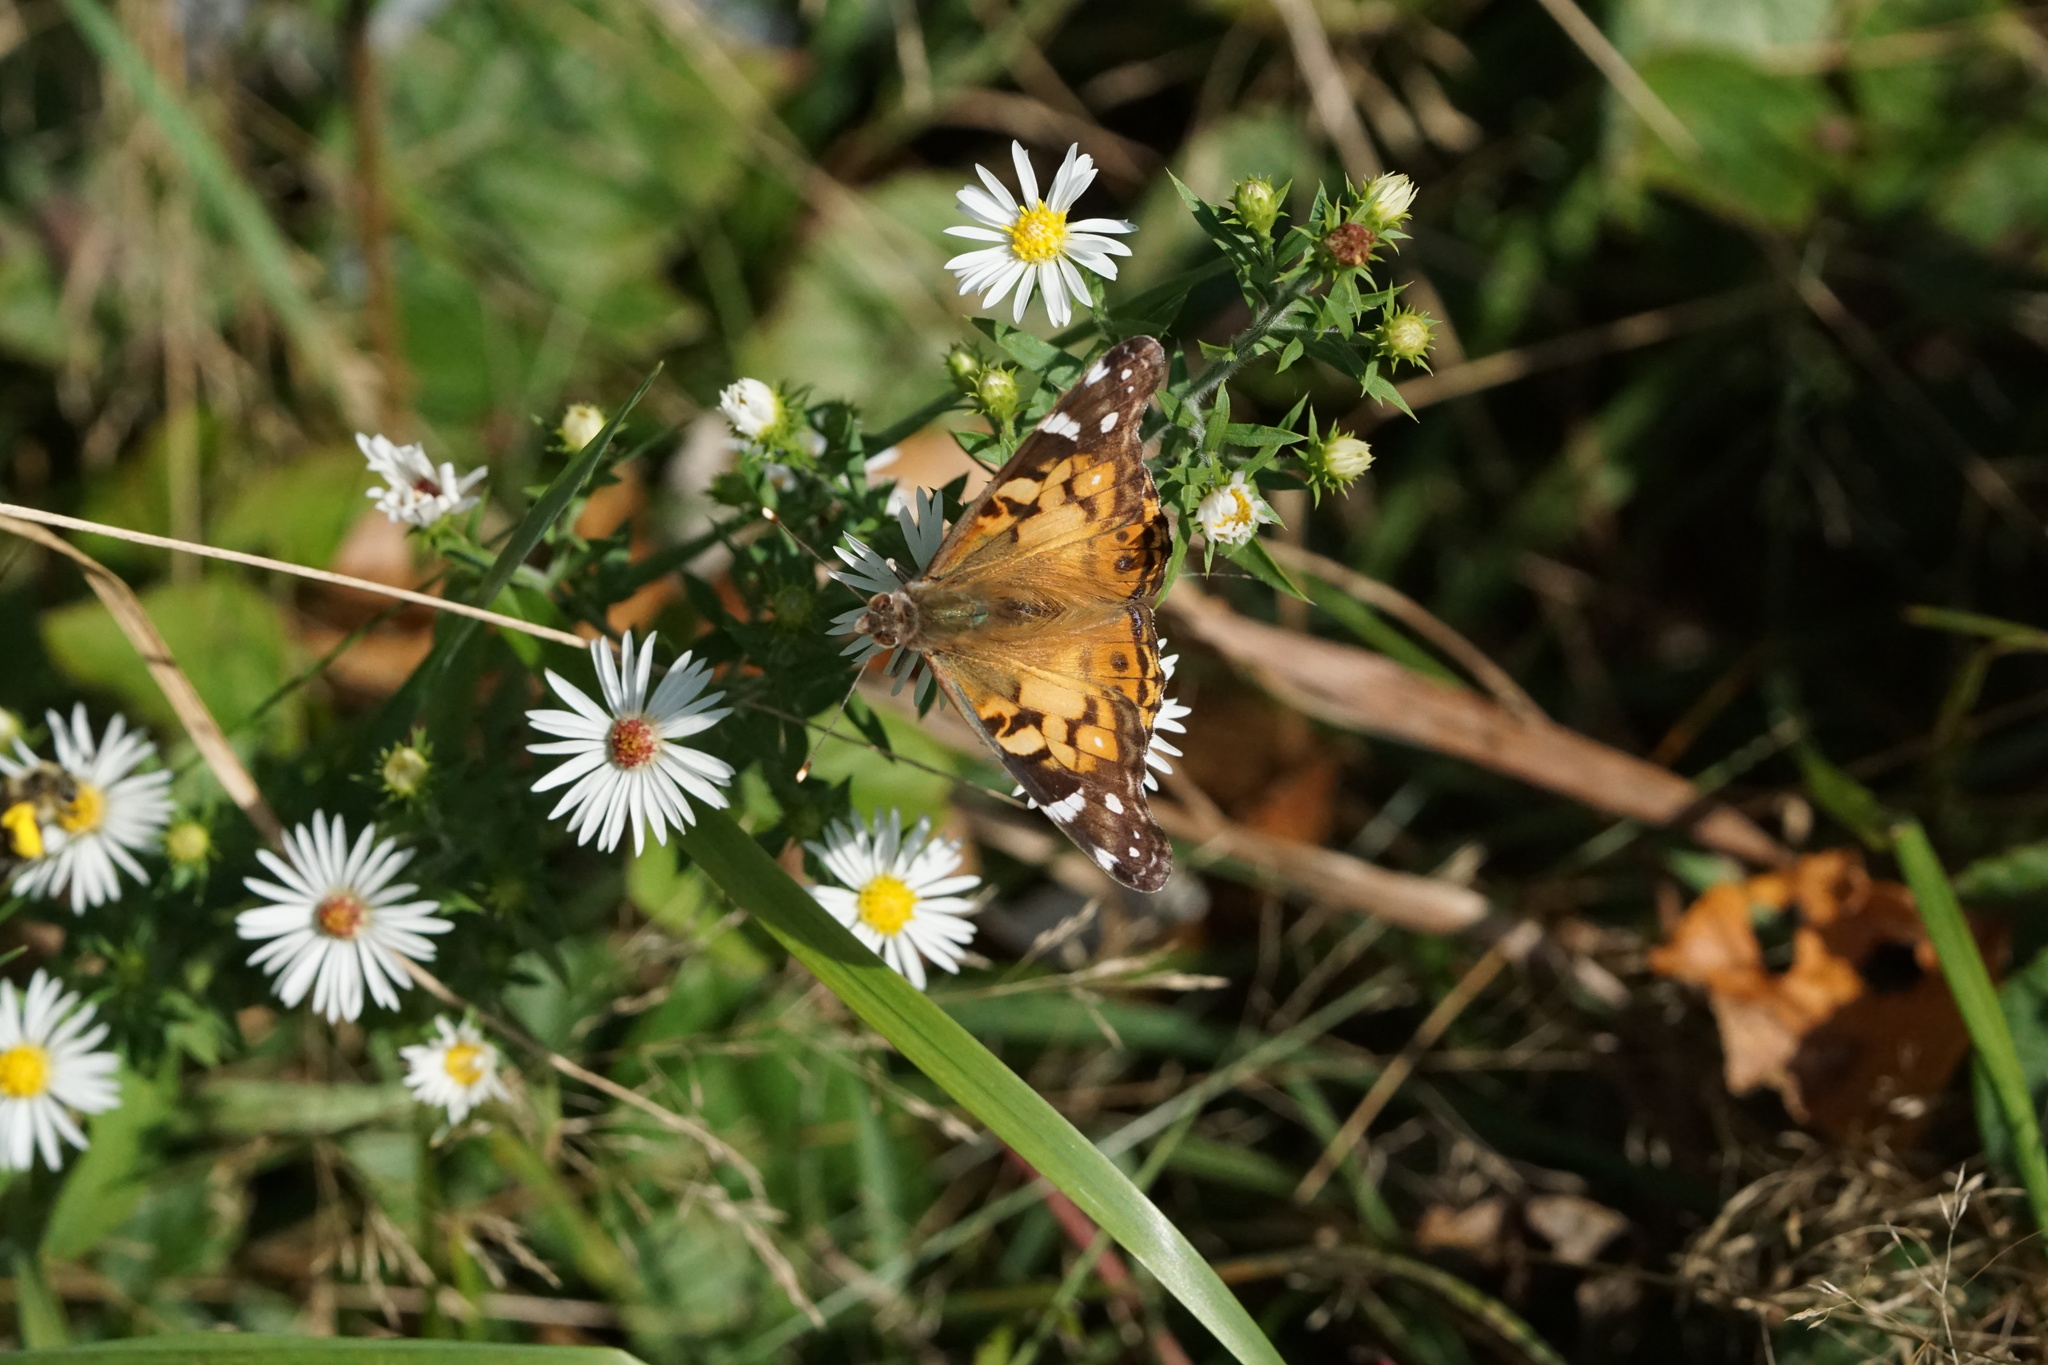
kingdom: Animalia
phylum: Arthropoda
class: Insecta
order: Lepidoptera
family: Nymphalidae
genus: Vanessa
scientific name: Vanessa virginiensis
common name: American lady
